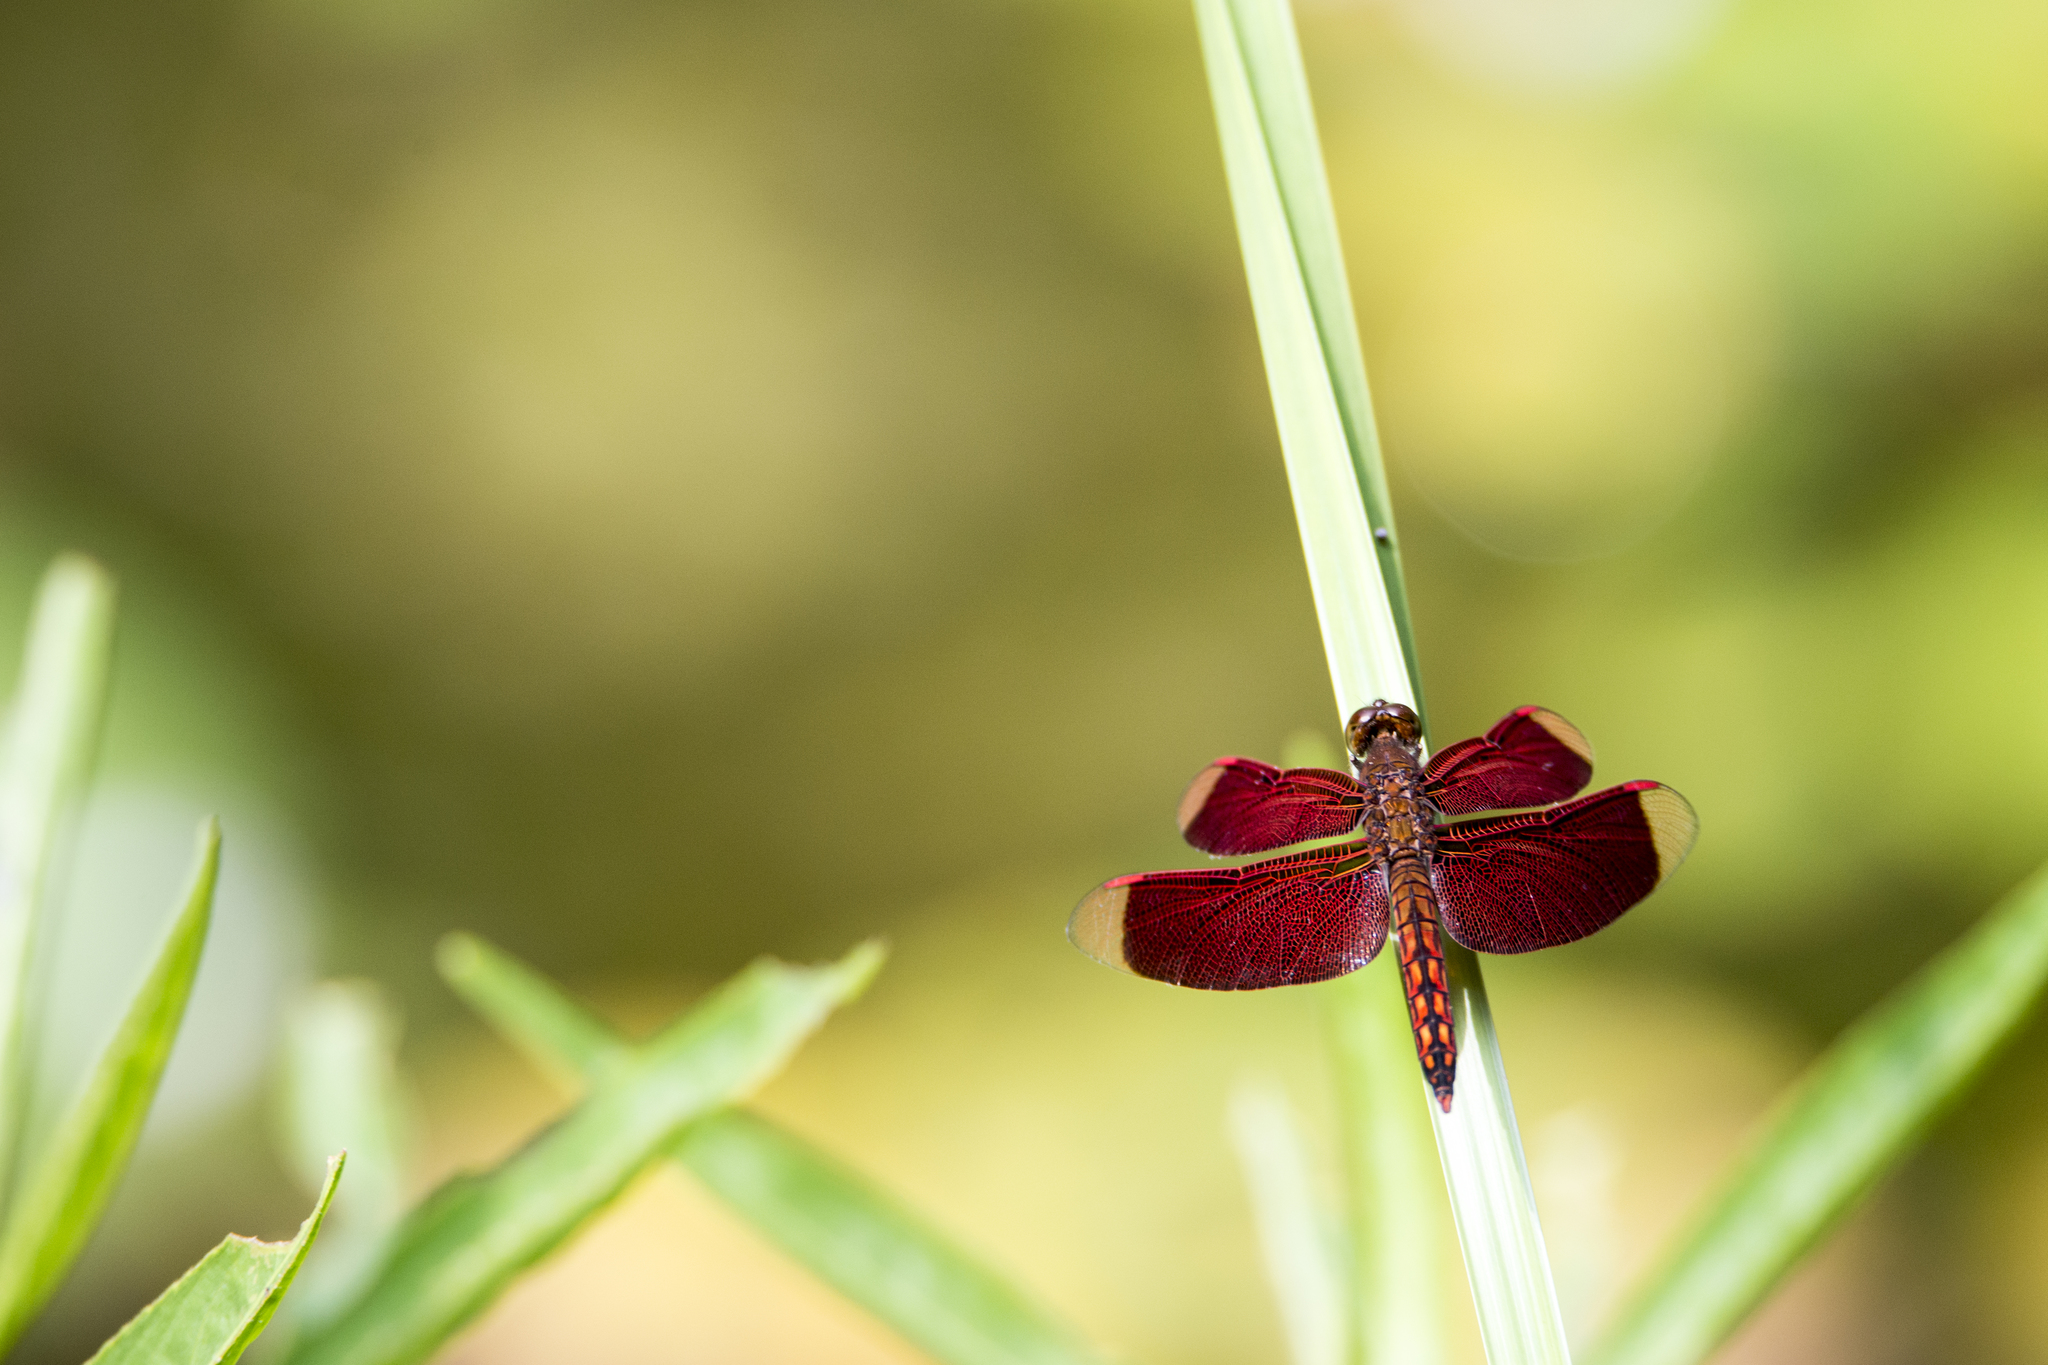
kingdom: Animalia
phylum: Arthropoda
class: Insecta
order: Odonata
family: Libellulidae
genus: Neurothemis
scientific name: Neurothemis taiwanensis
